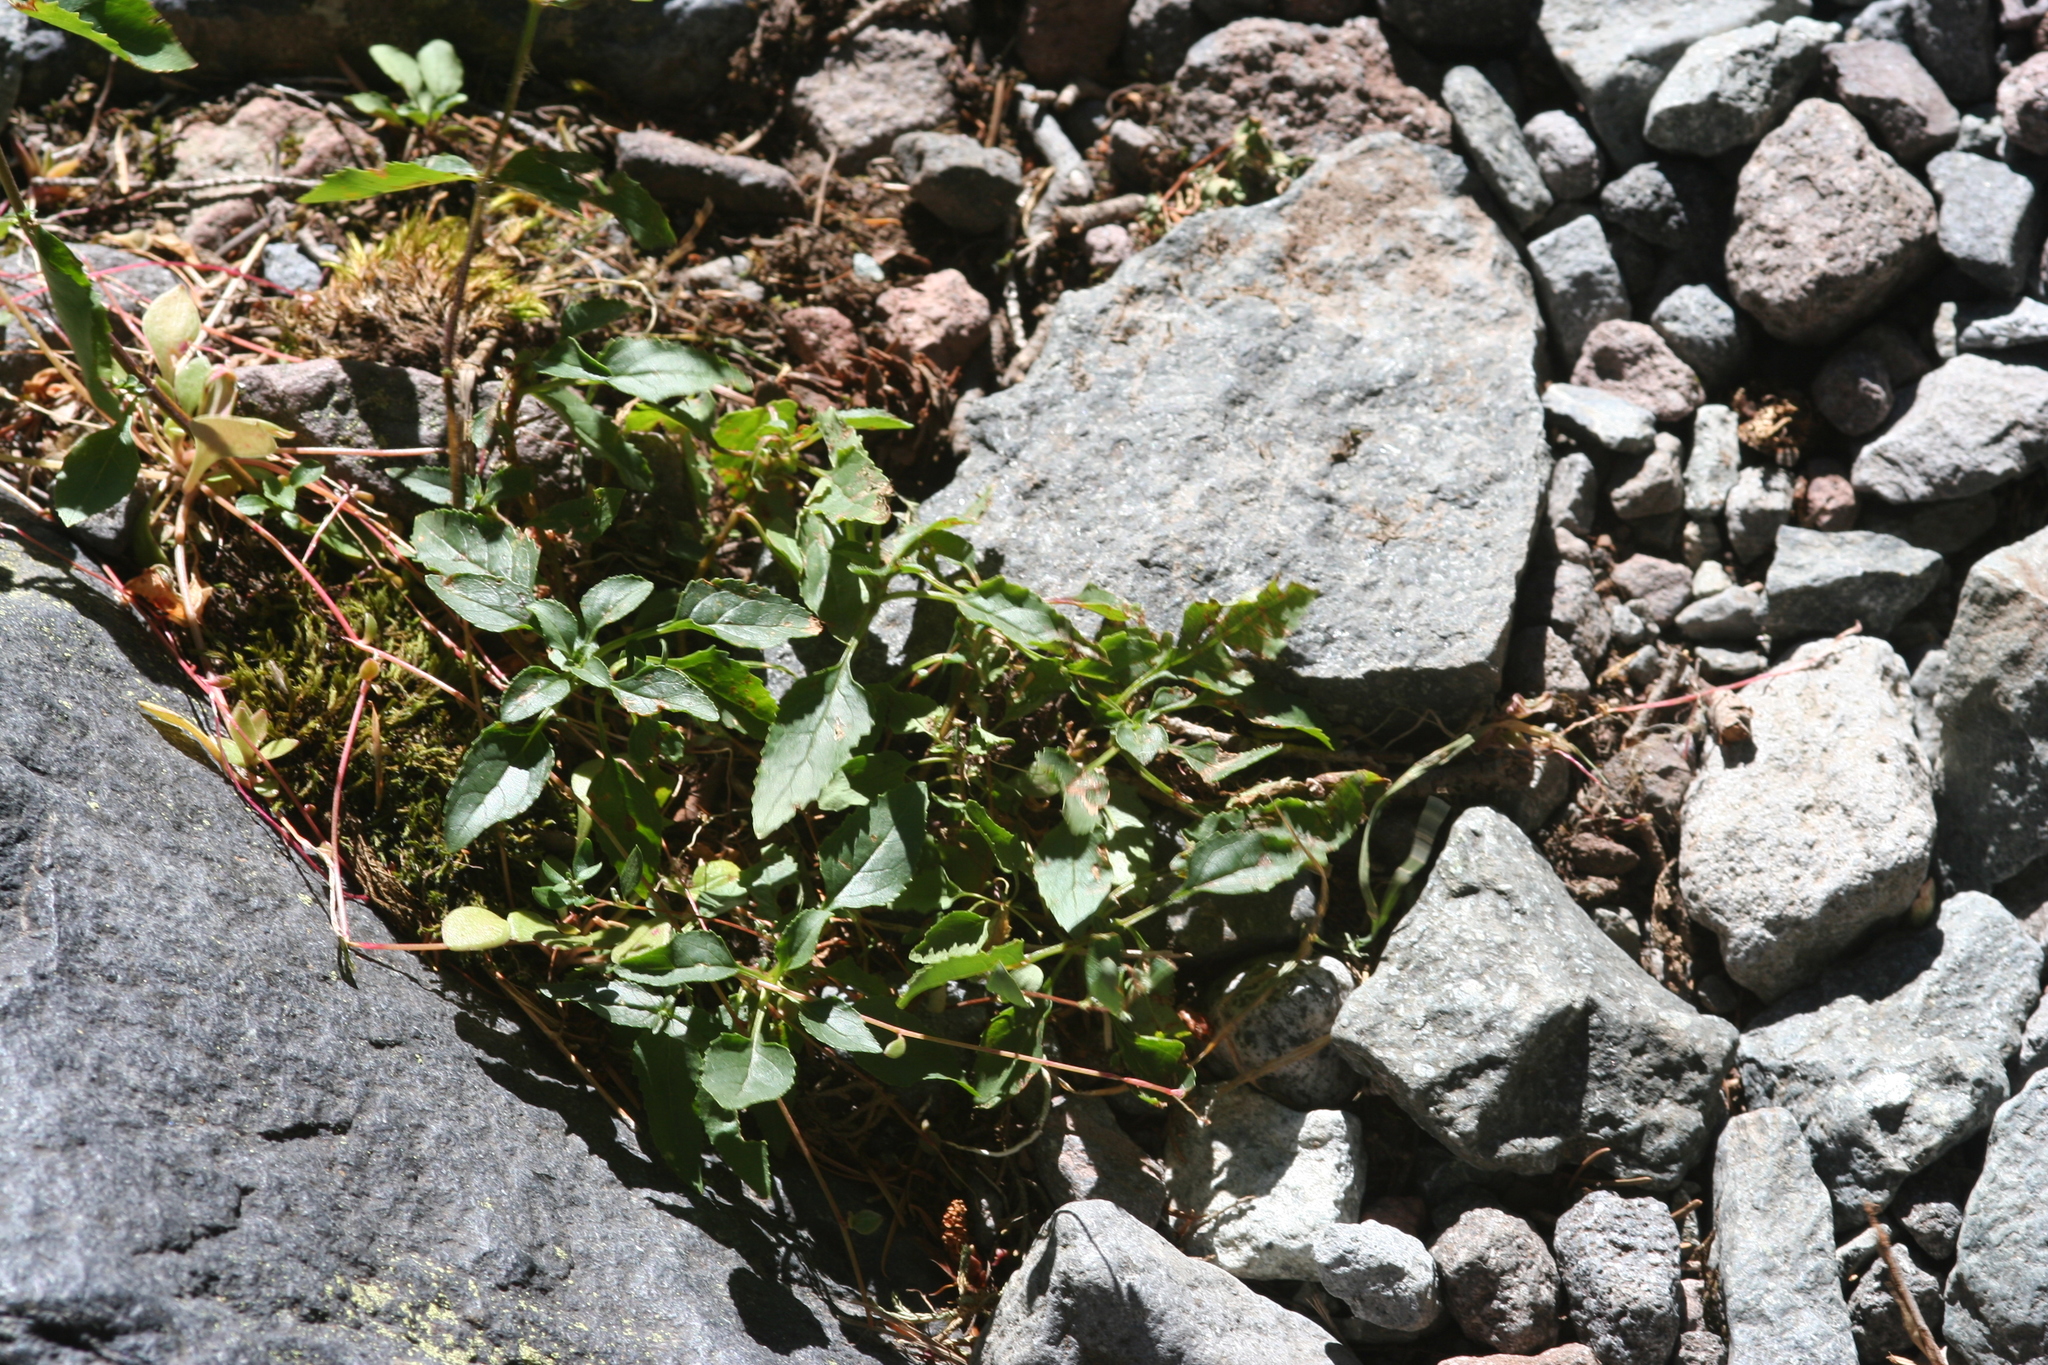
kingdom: Plantae
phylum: Tracheophyta
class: Magnoliopsida
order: Lamiales
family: Plantaginaceae
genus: Penstemon
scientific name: Penstemon serrulatus
